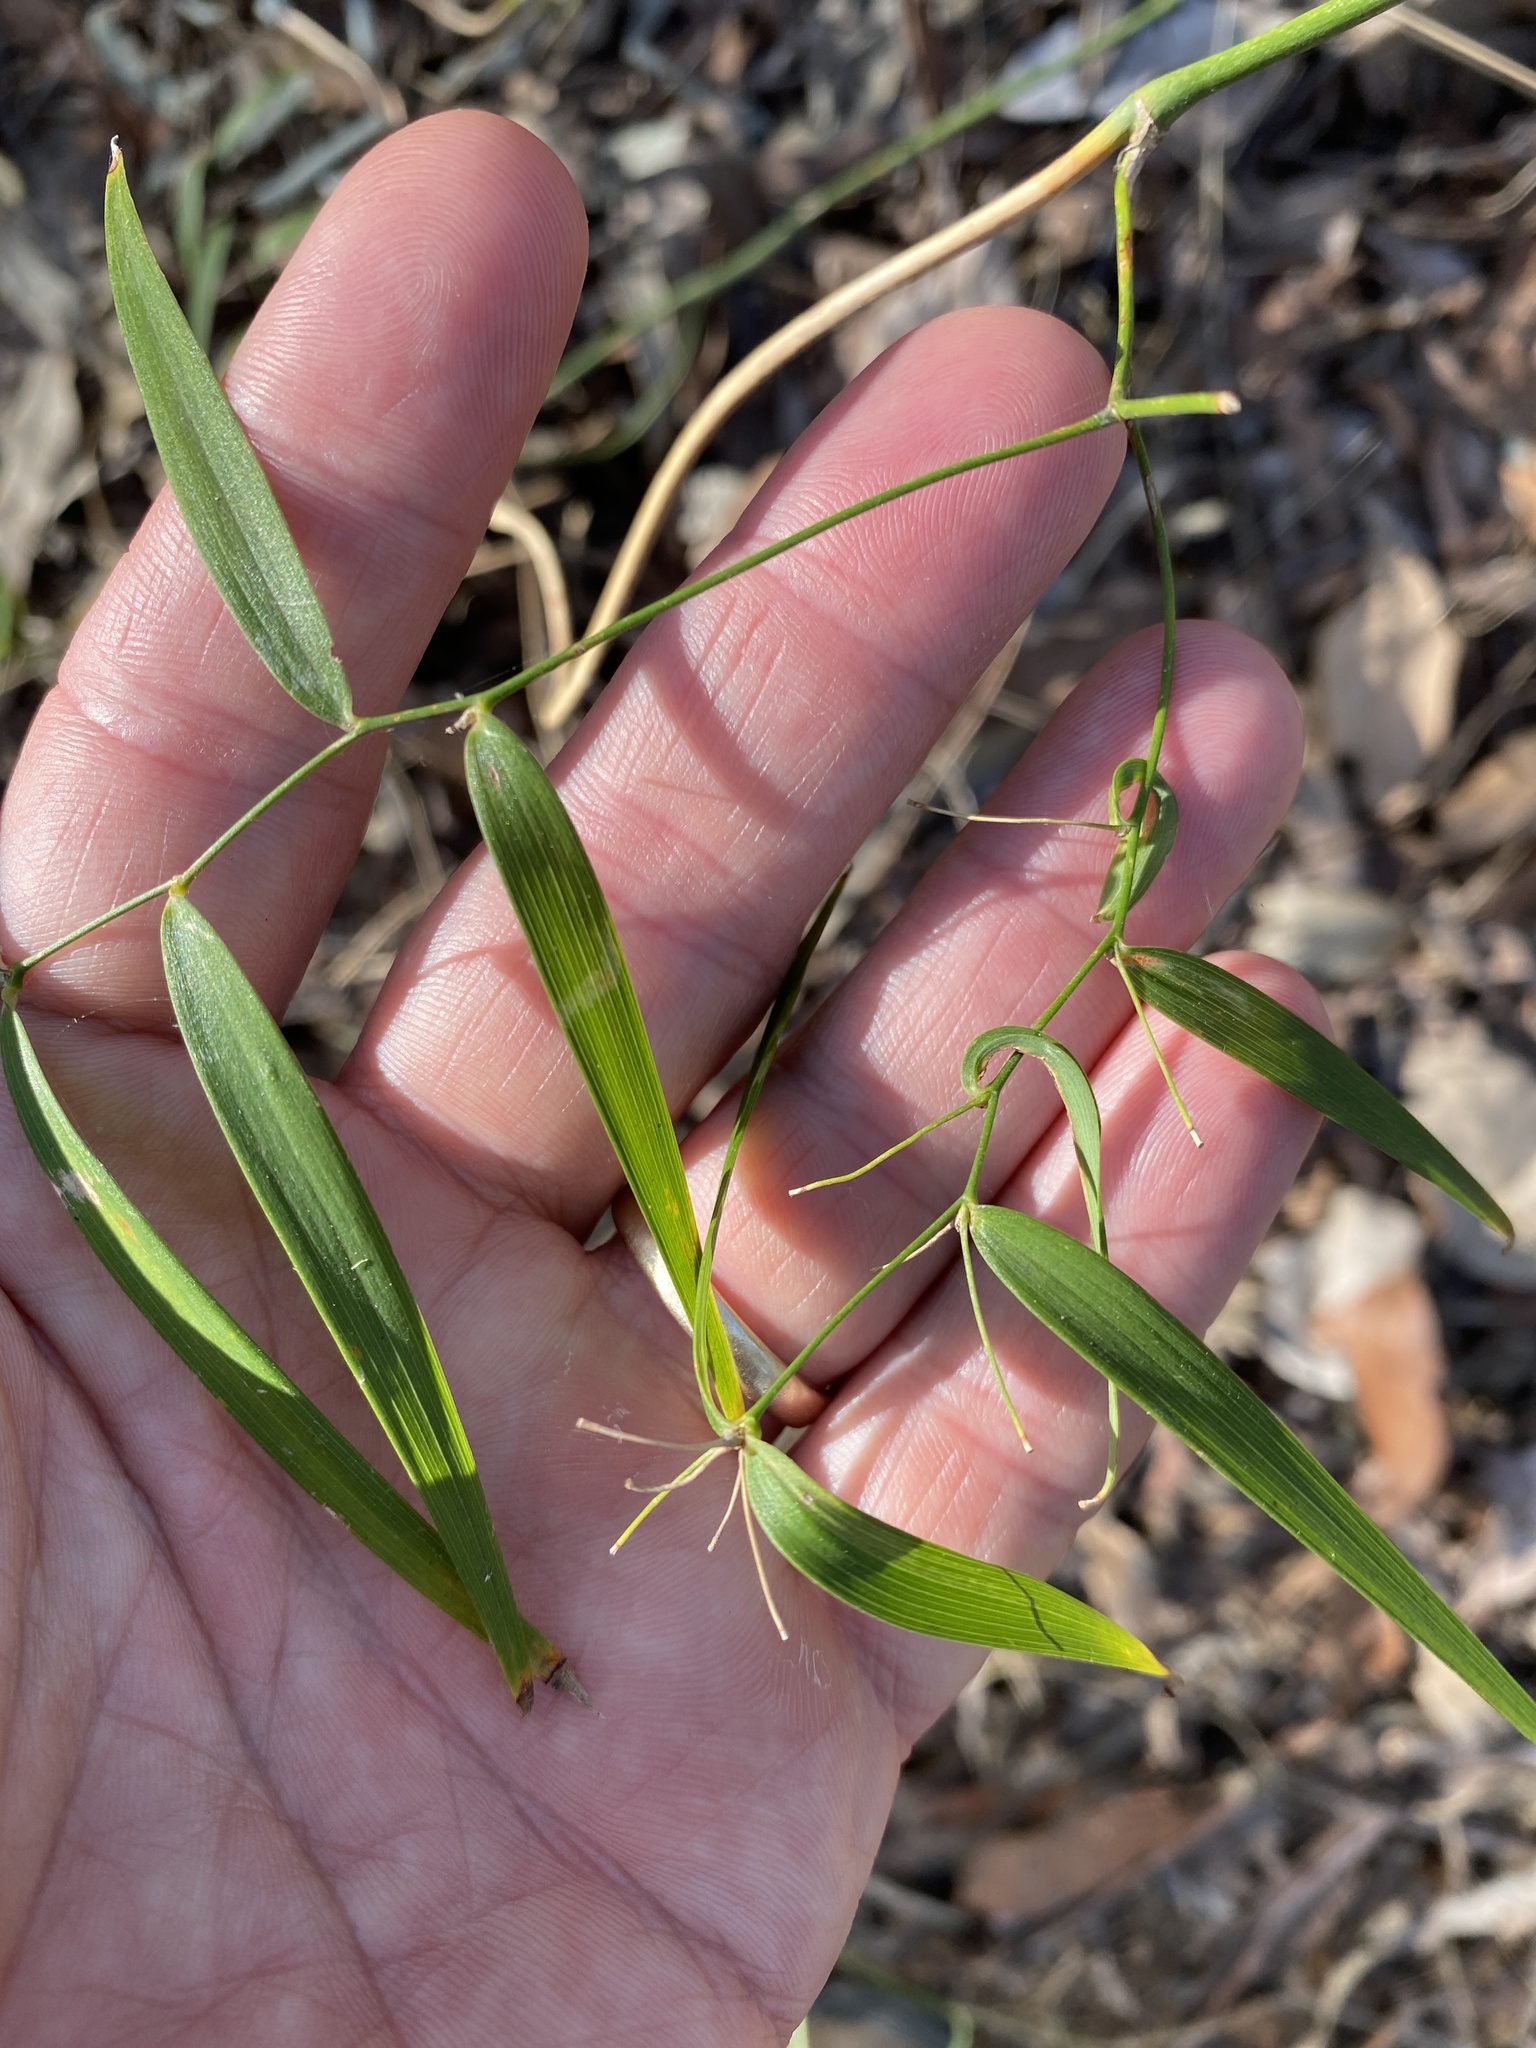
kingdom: Plantae
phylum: Tracheophyta
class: Liliopsida
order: Asparagales
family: Asparagaceae
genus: Eustrephus
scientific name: Eustrephus latifolius
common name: Orangevine
